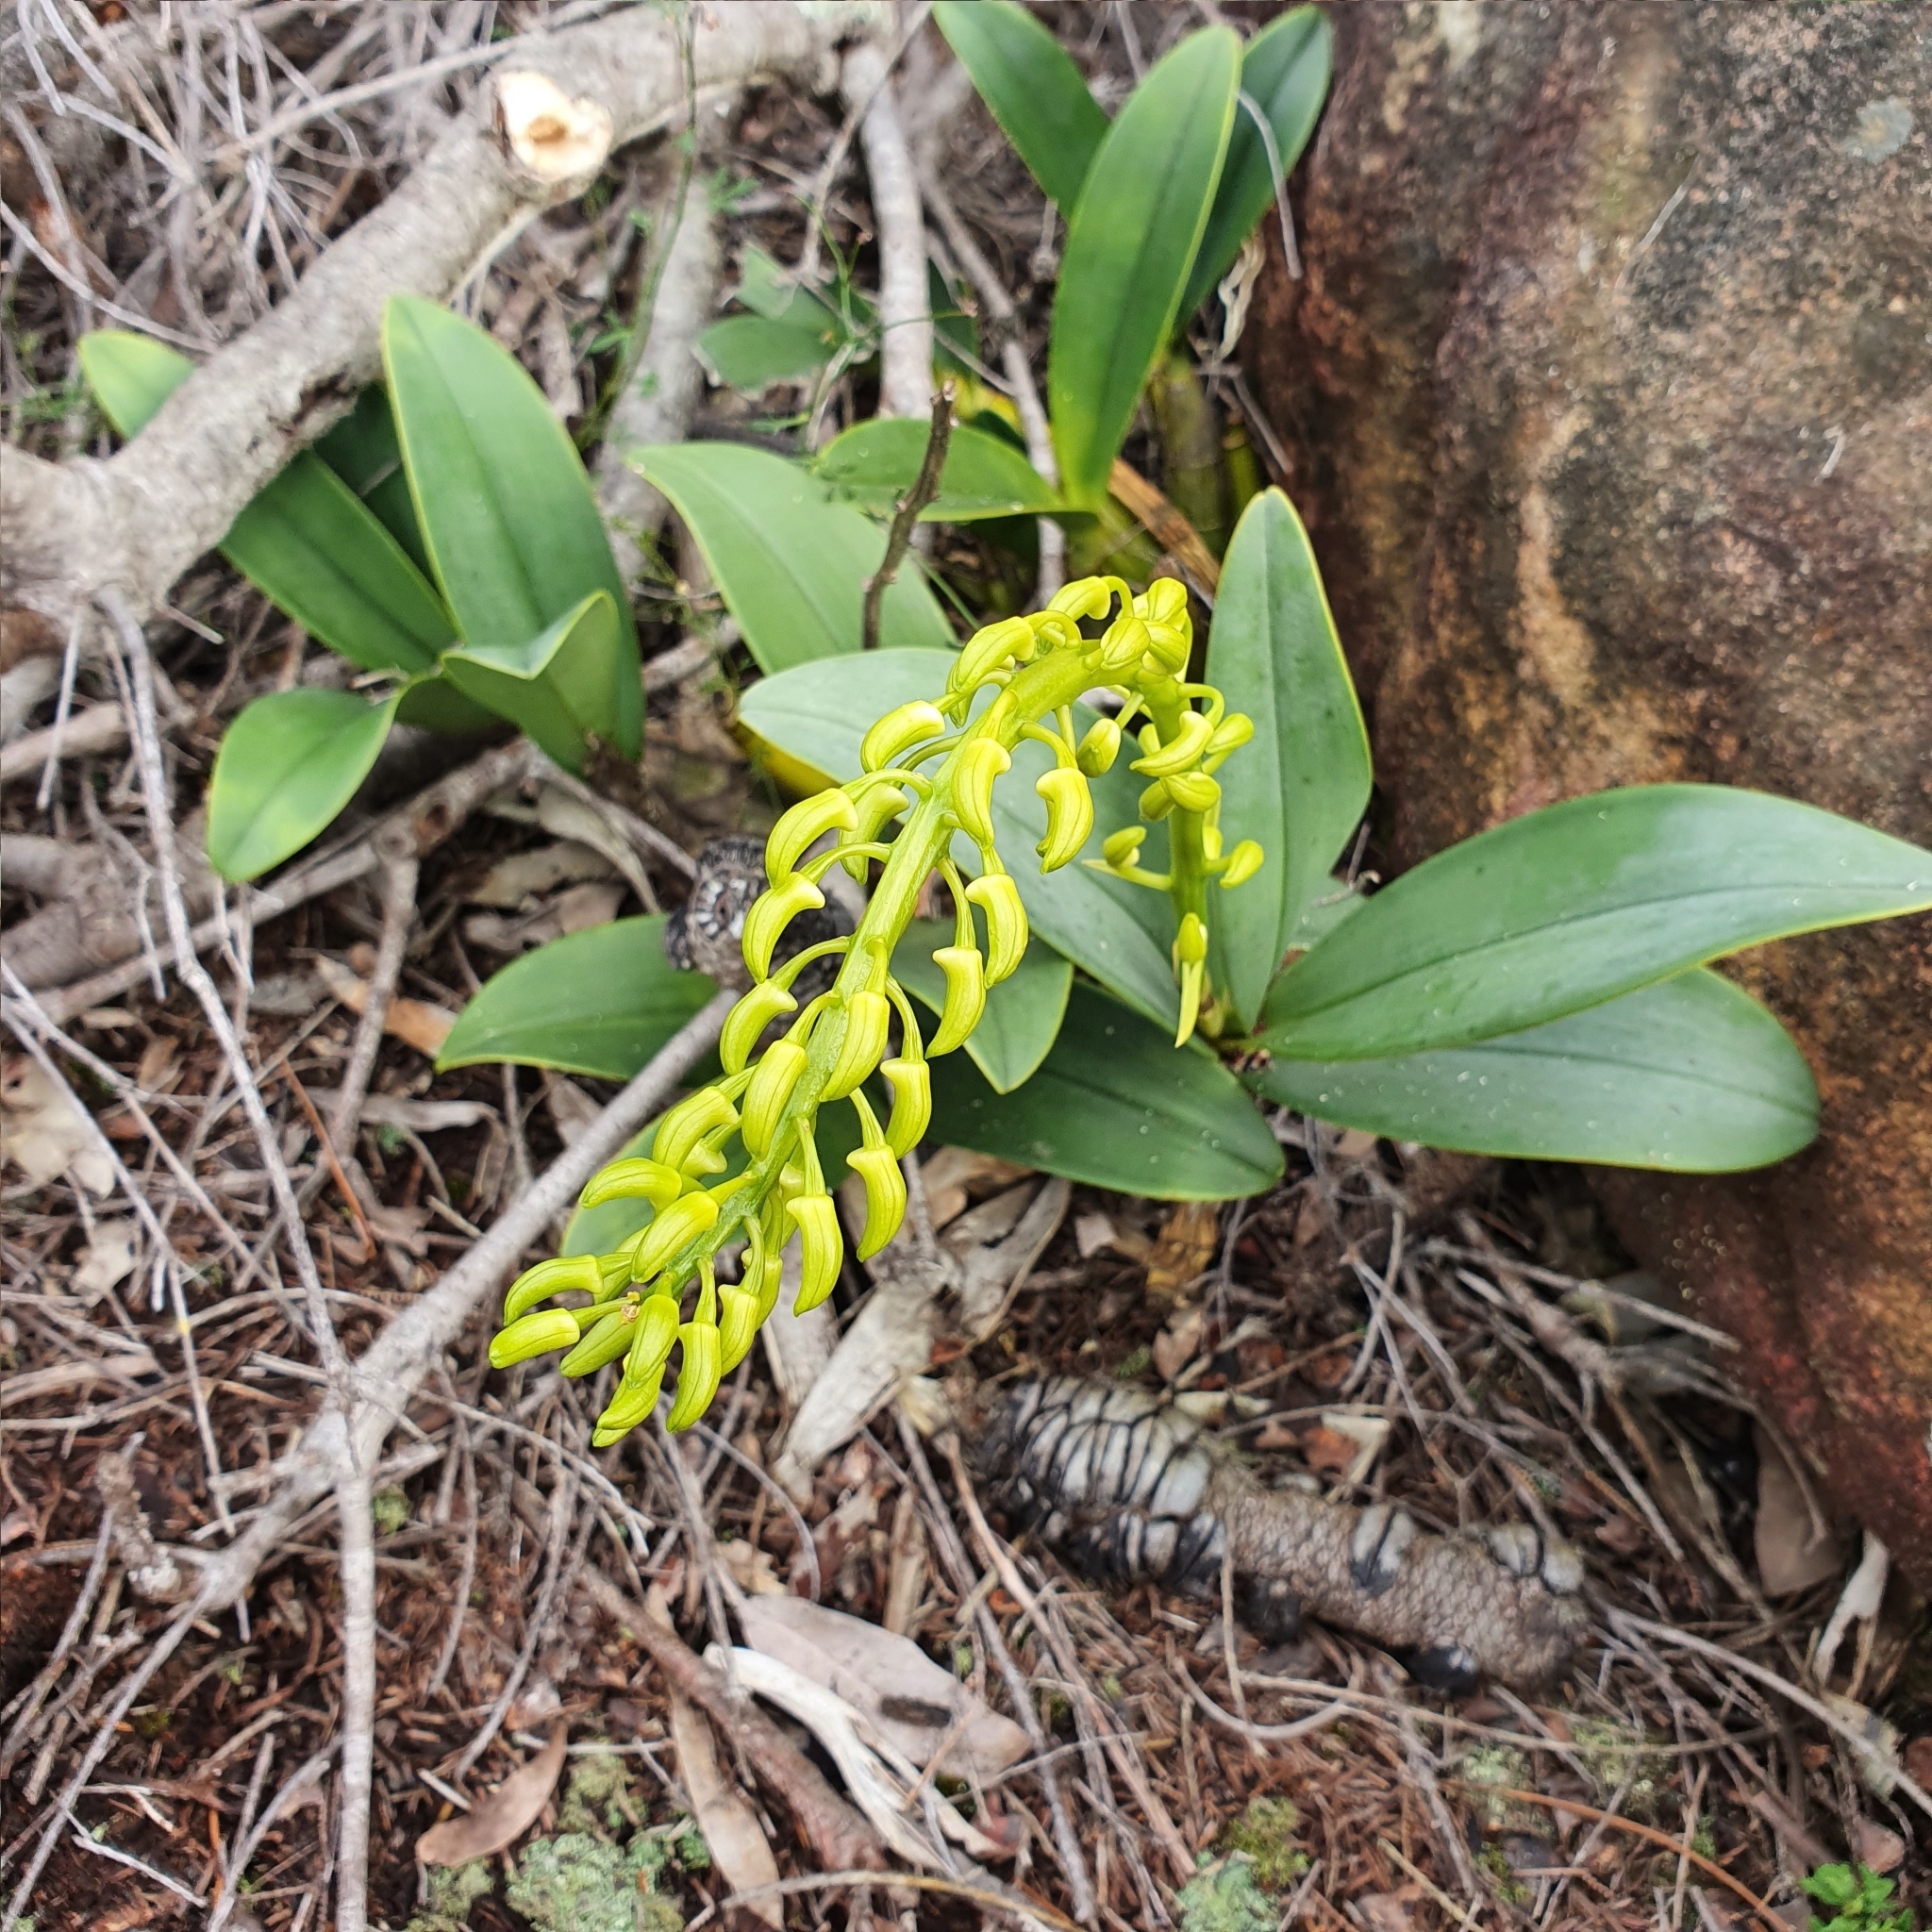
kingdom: Plantae
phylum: Tracheophyta
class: Liliopsida
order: Asparagales
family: Orchidaceae
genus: Dendrobium
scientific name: Dendrobium speciosum
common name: Rock-lily
